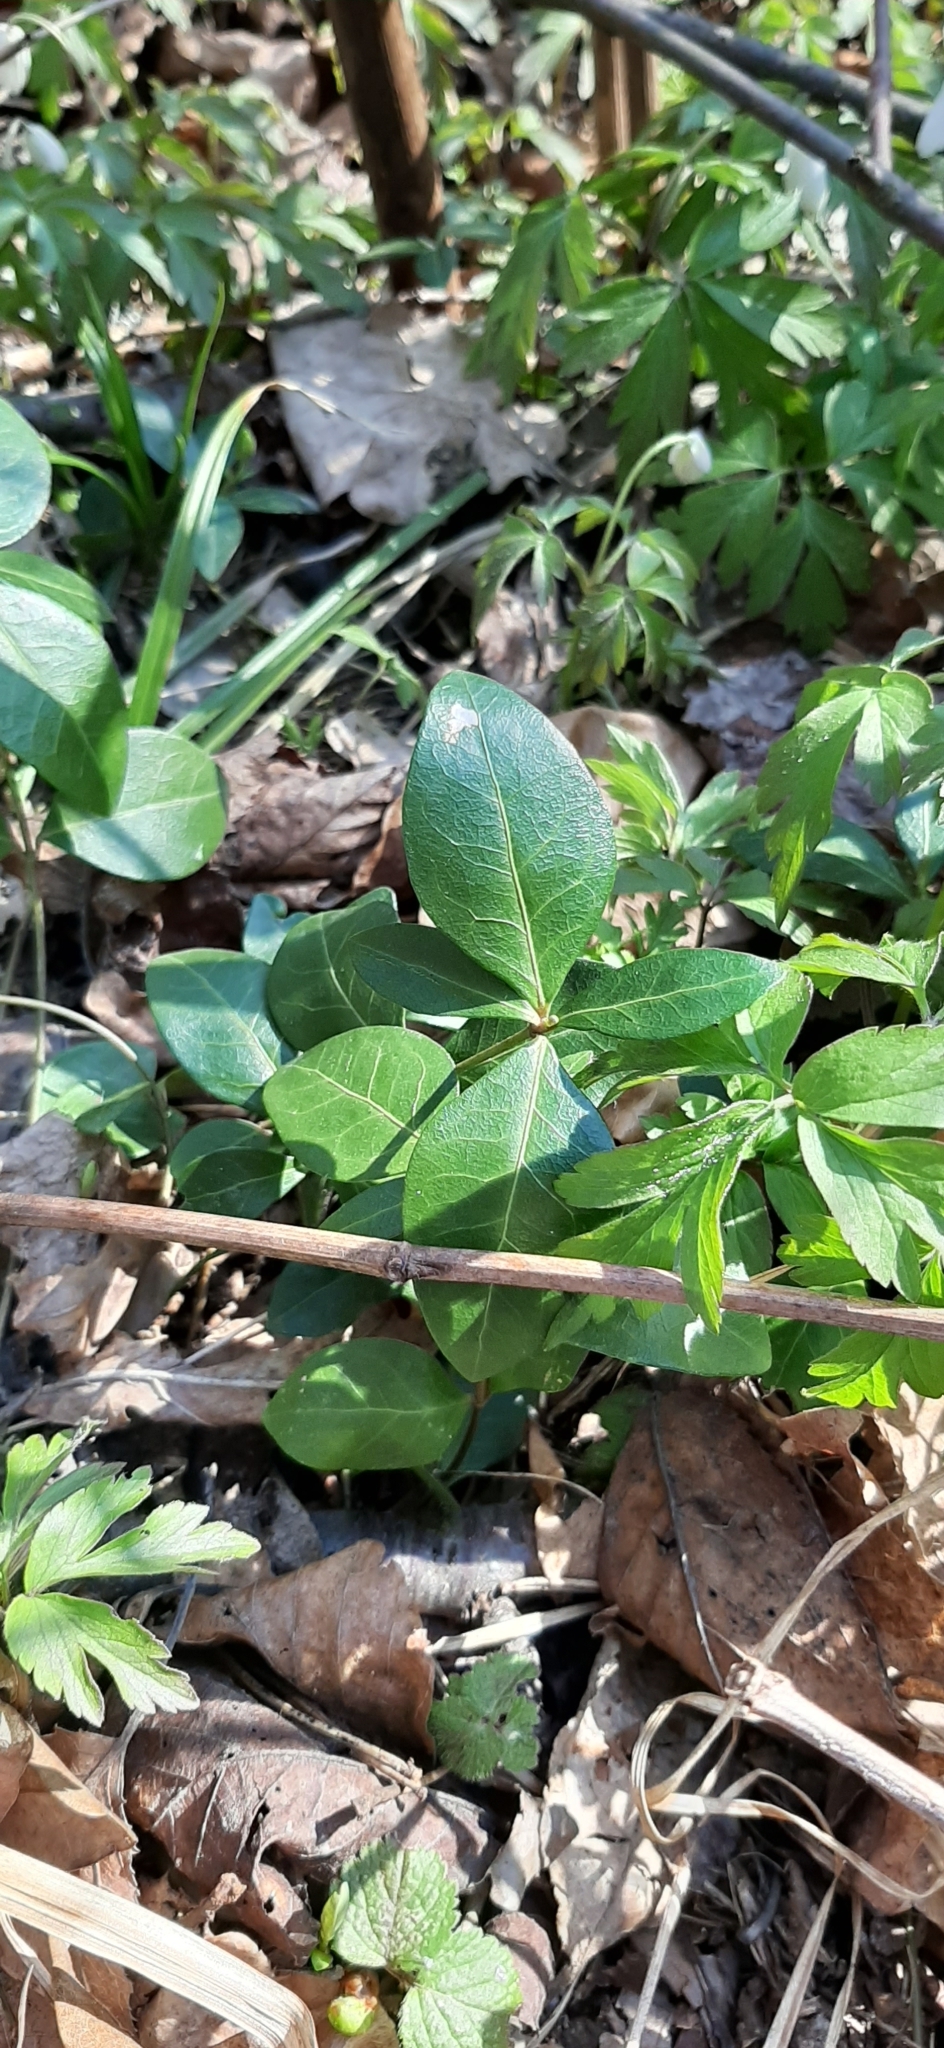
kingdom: Plantae
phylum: Tracheophyta
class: Magnoliopsida
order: Gentianales
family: Apocynaceae
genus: Vinca
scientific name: Vinca minor
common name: Lesser periwinkle
